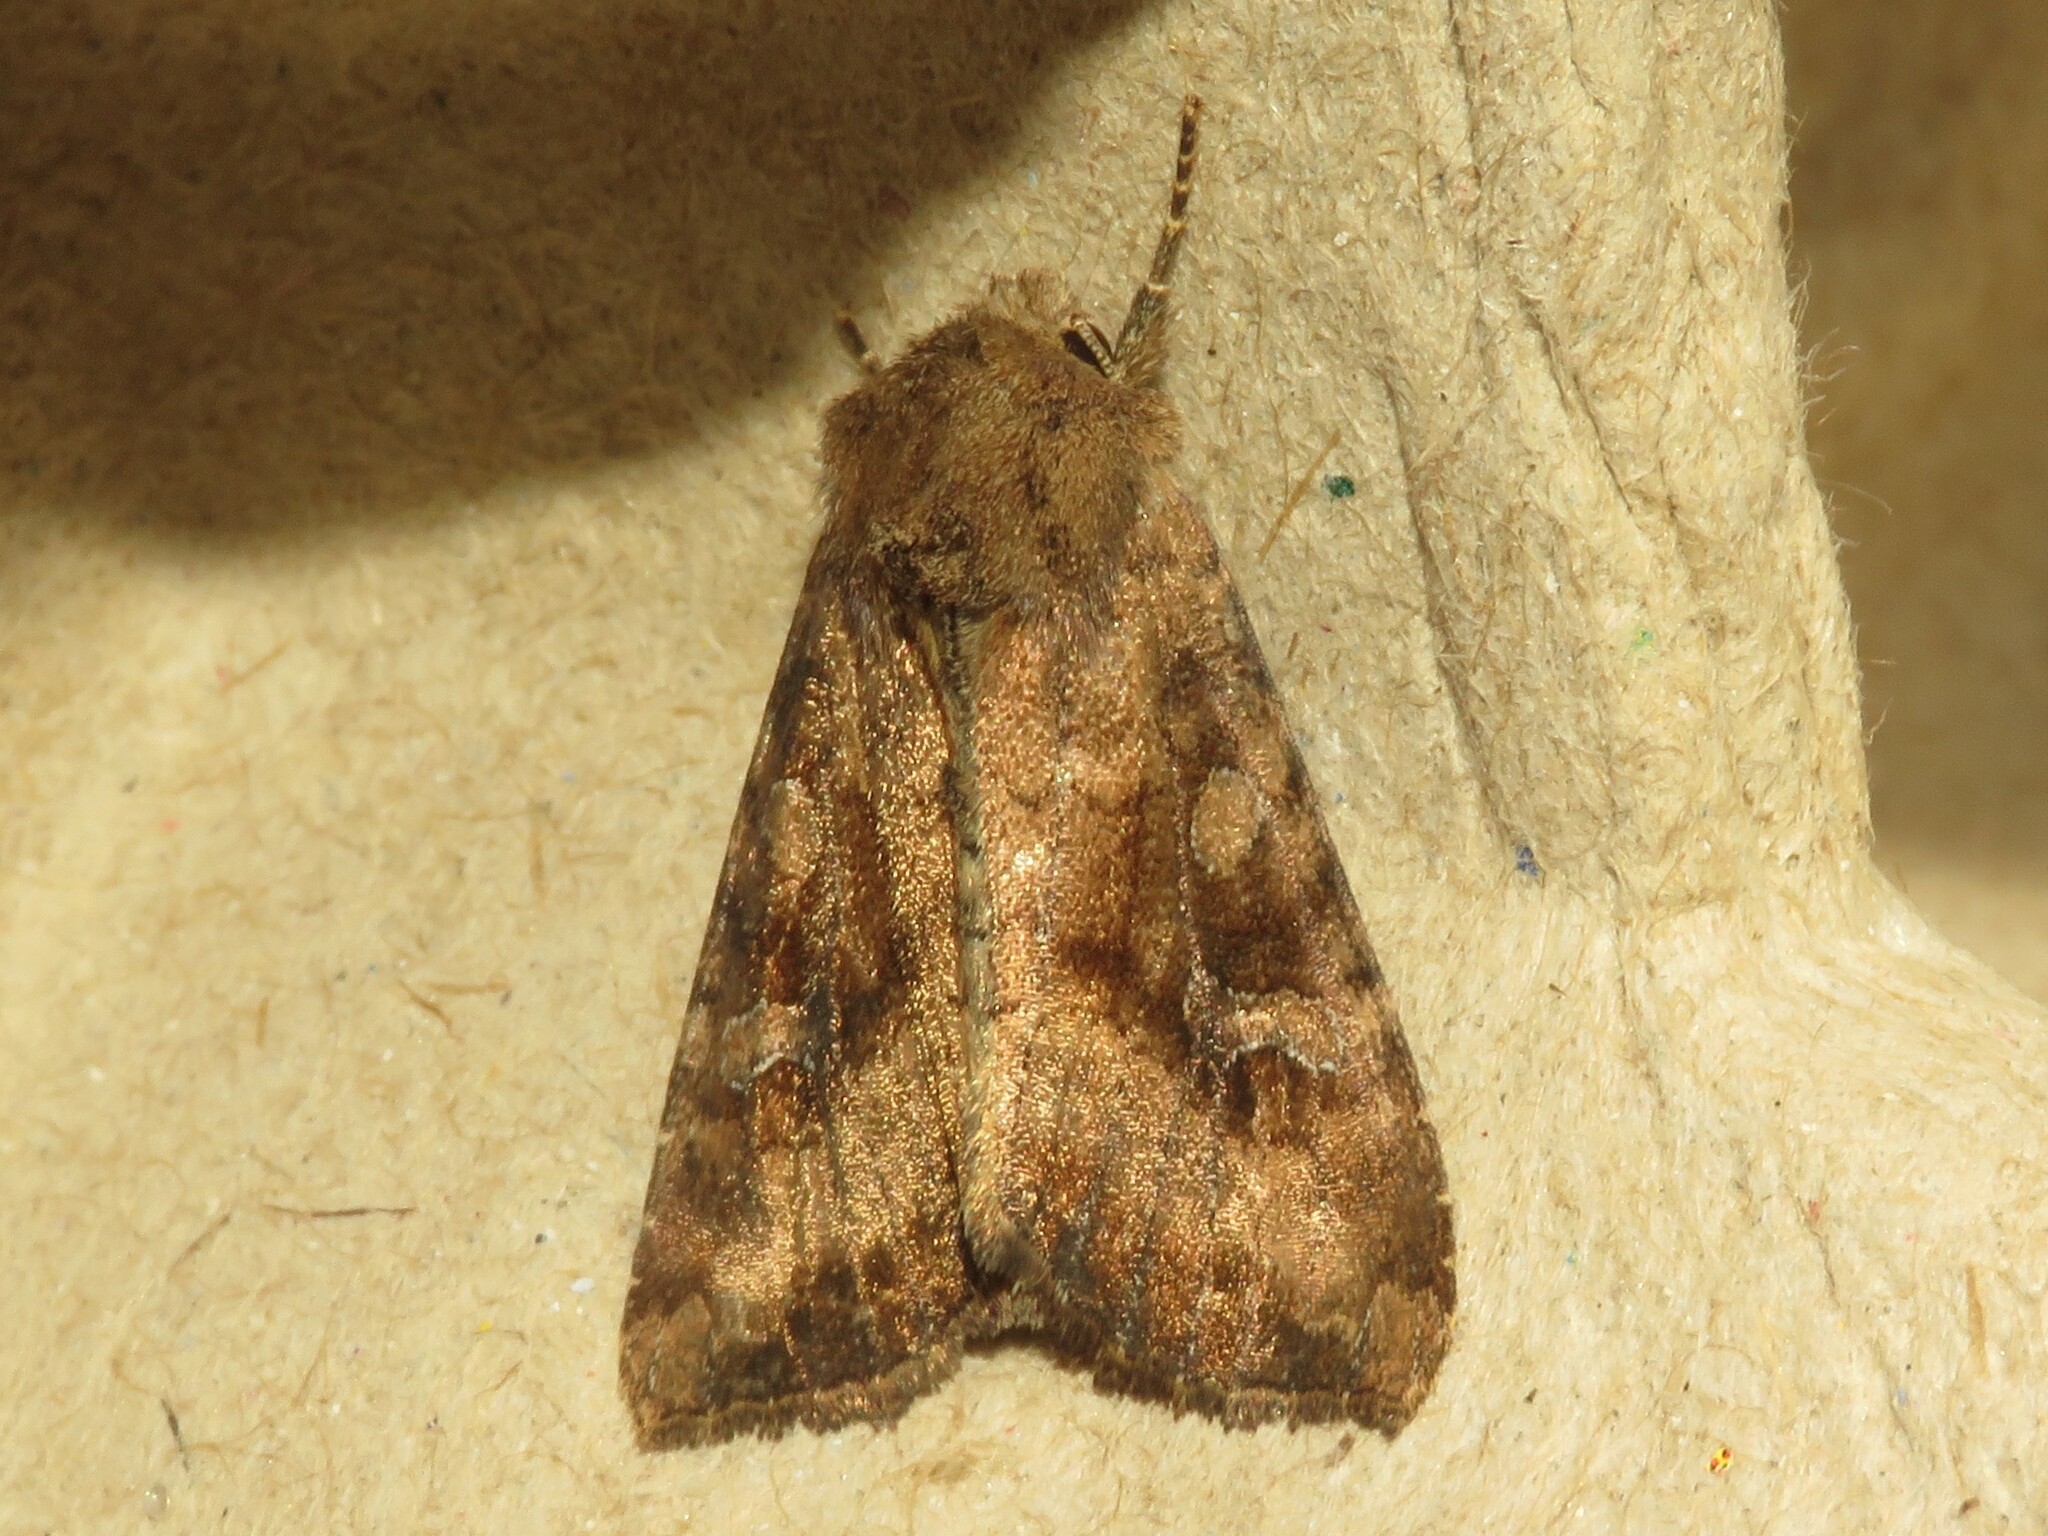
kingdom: Animalia
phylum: Arthropoda
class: Insecta
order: Lepidoptera
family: Noctuidae
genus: Loscopia
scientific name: Loscopia velata
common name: Veiled ear moth
